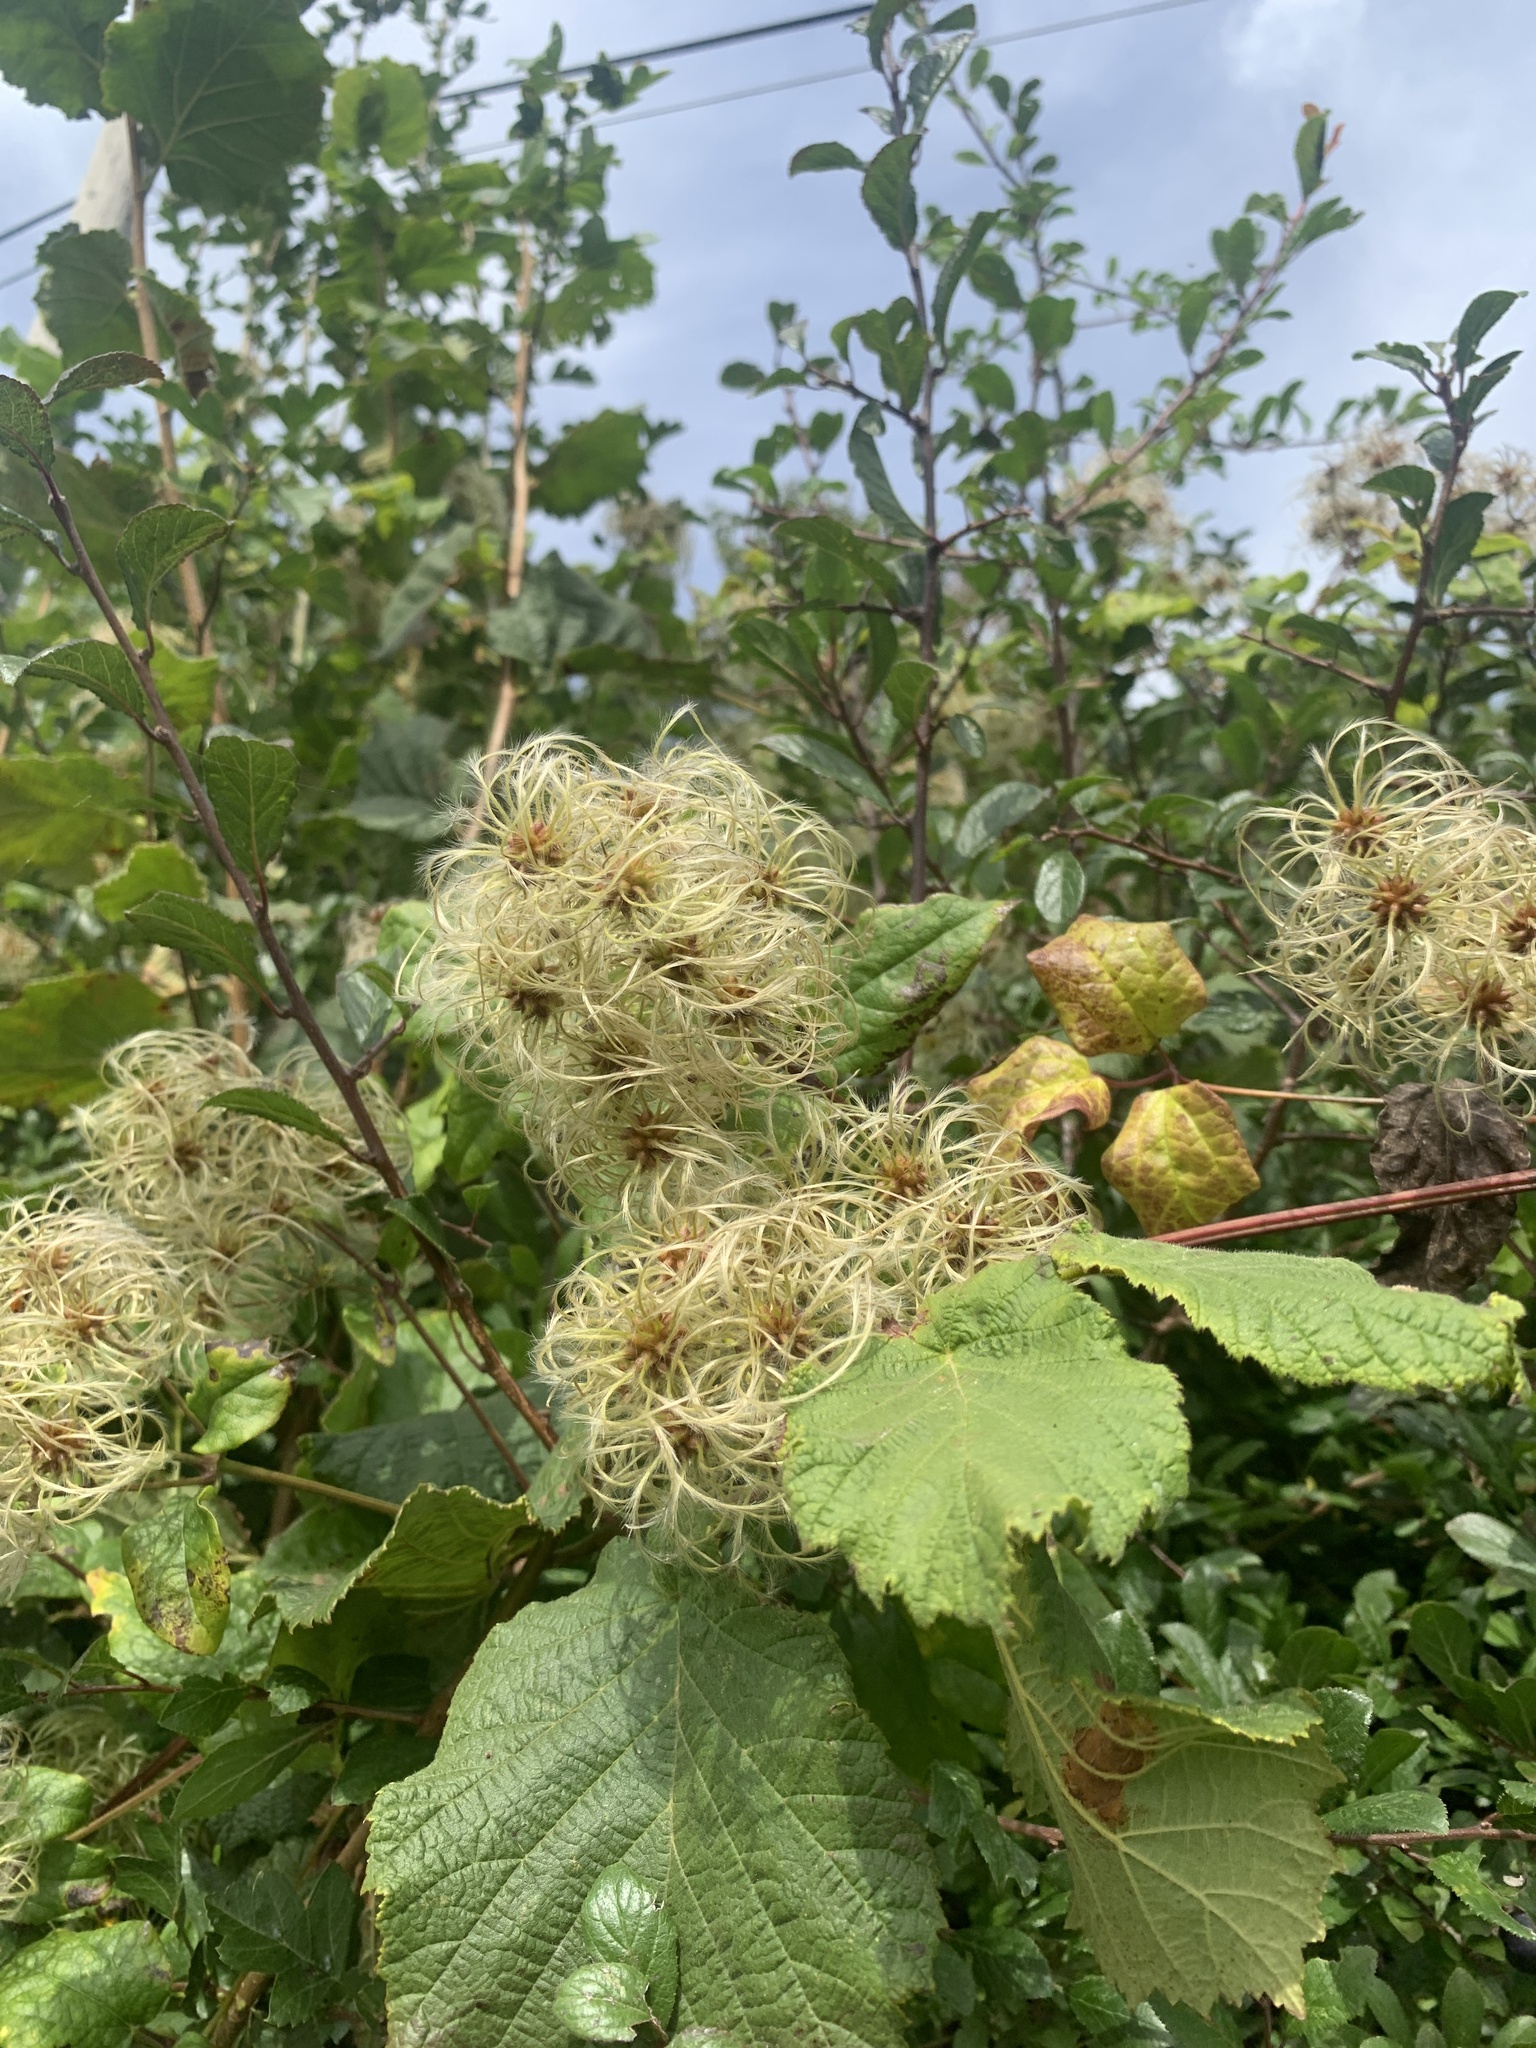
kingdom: Plantae
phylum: Tracheophyta
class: Magnoliopsida
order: Ranunculales
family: Ranunculaceae
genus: Clematis
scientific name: Clematis vitalba
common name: Evergreen clematis
